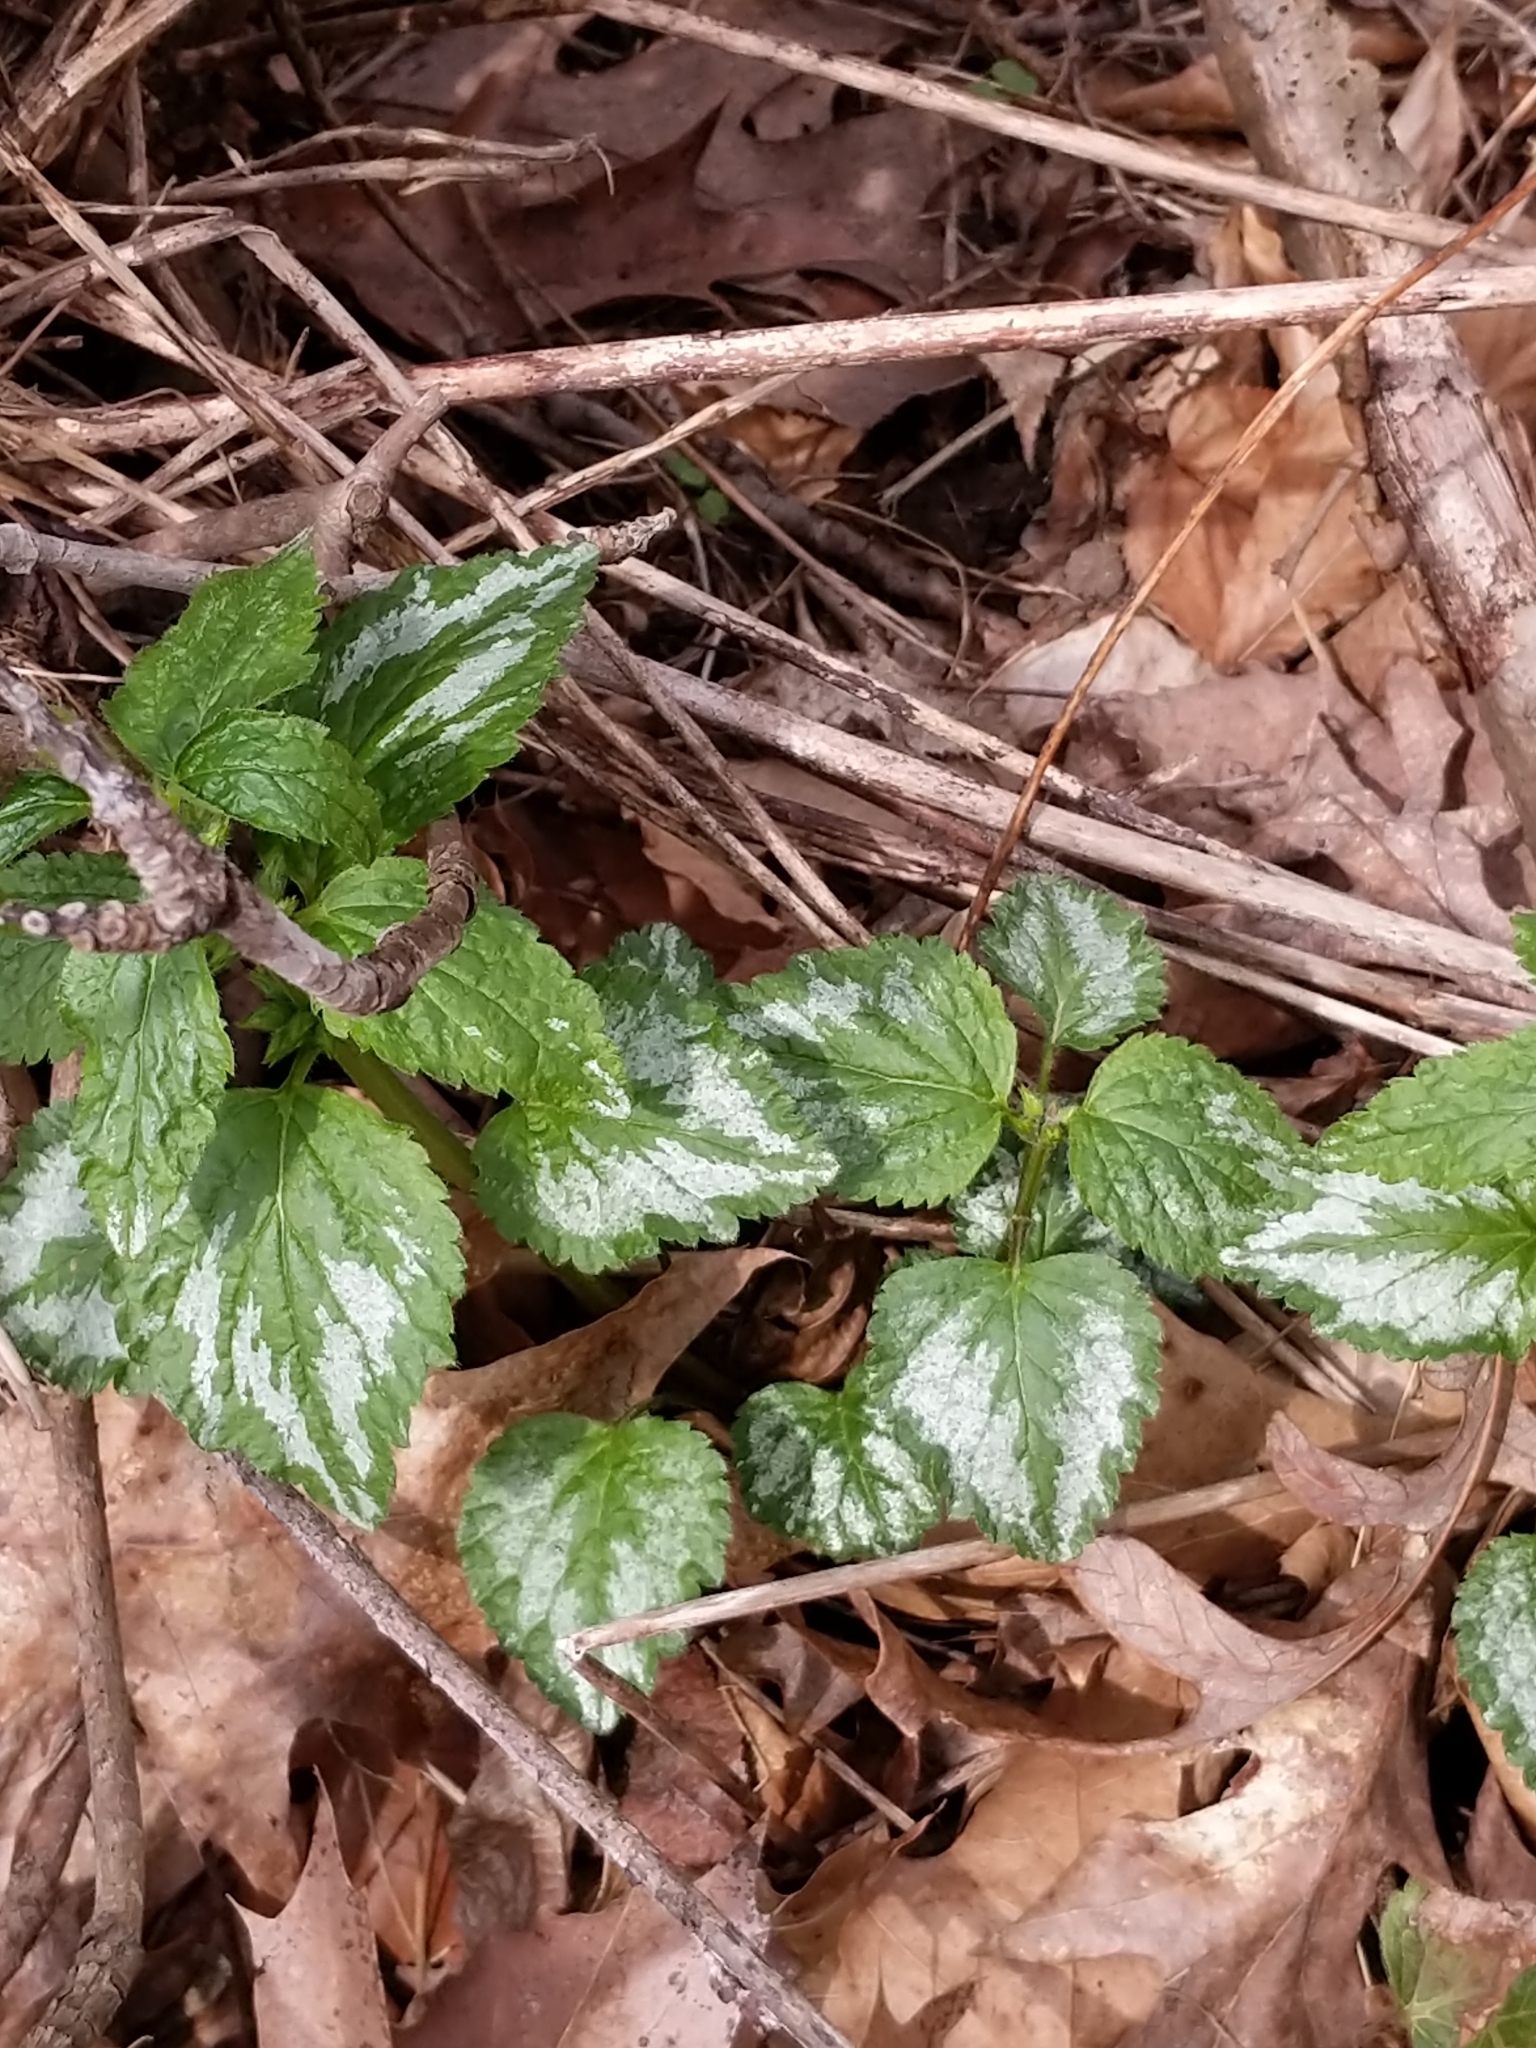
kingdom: Plantae
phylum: Tracheophyta
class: Magnoliopsida
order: Lamiales
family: Lamiaceae
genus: Lamium
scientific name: Lamium galeobdolon
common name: Yellow archangel
